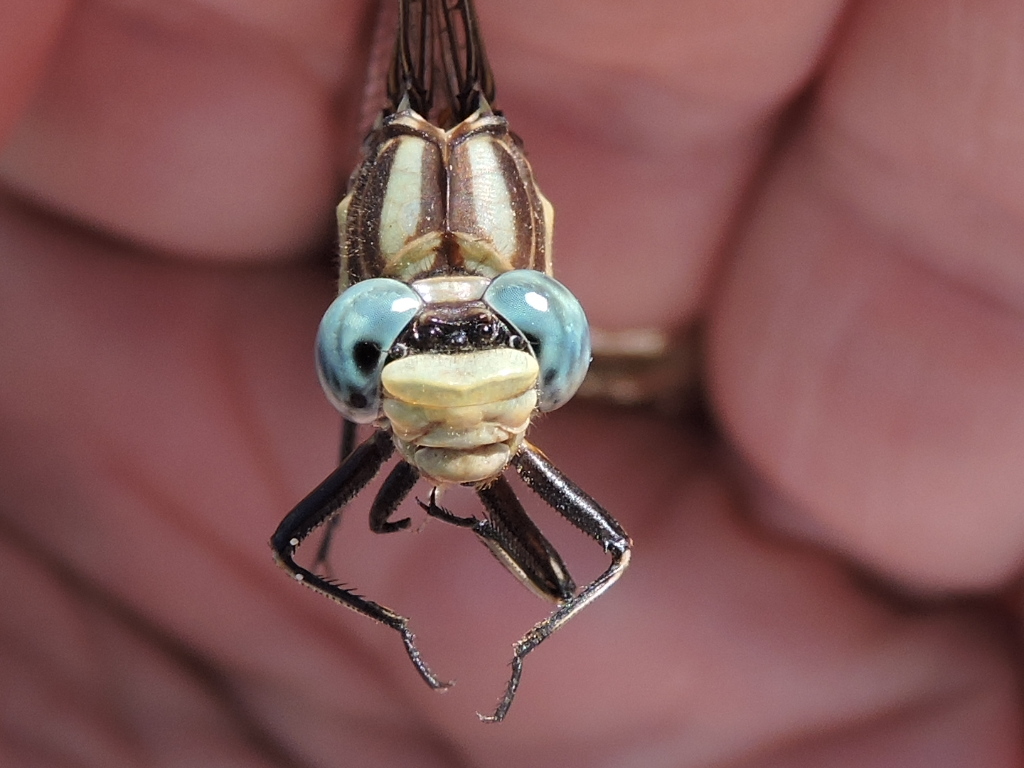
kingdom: Animalia
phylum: Arthropoda
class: Insecta
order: Odonata
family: Gomphidae
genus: Phanogomphus
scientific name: Phanogomphus militaris
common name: Sulphur-tipped clubtail
